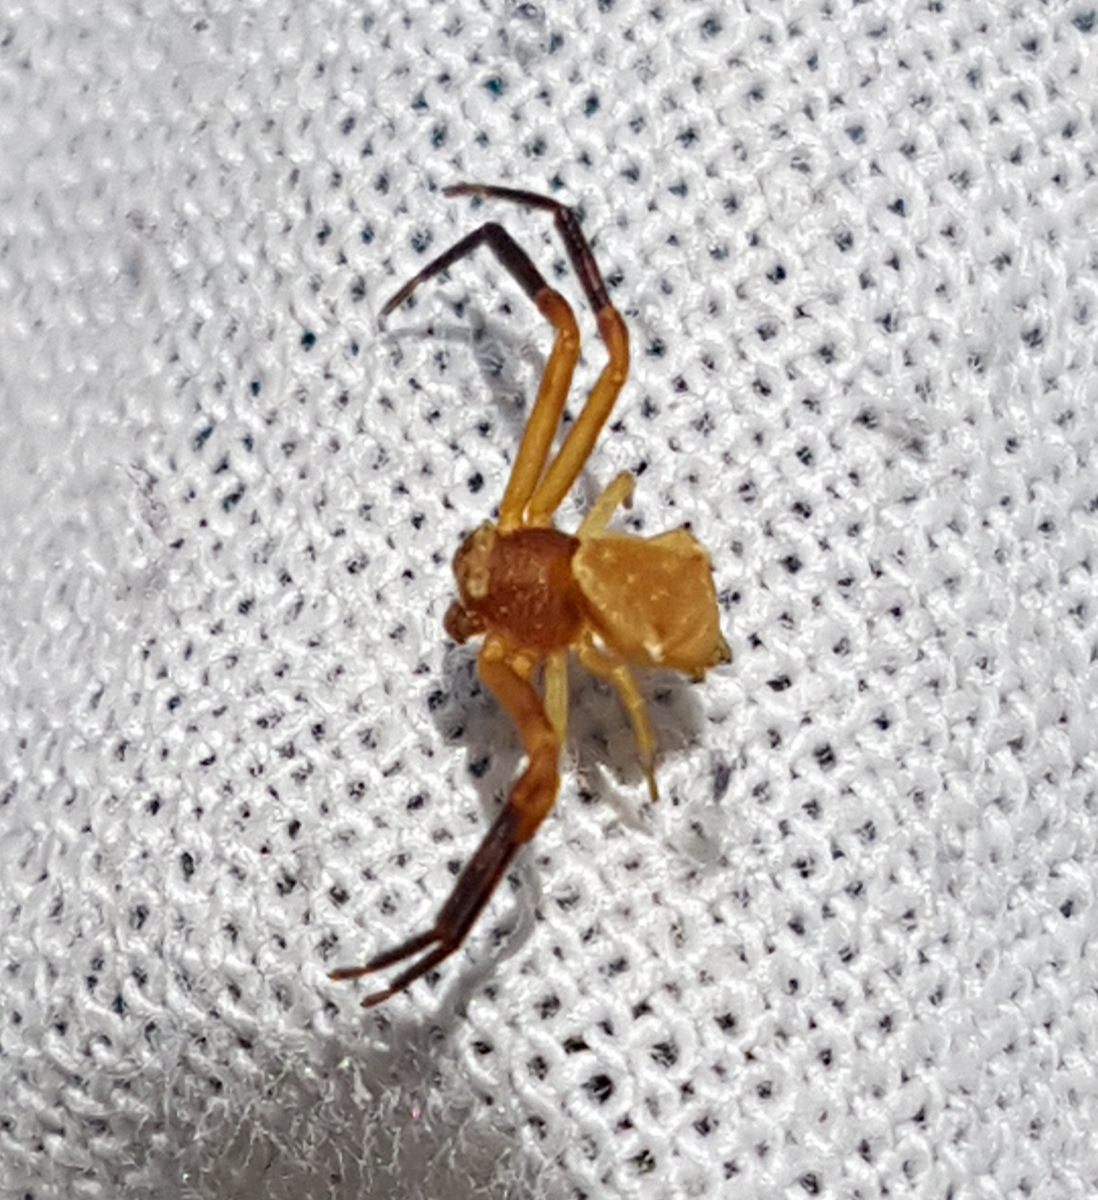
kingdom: Animalia
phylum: Arthropoda
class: Arachnida
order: Araneae
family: Thomisidae
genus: Thomisus
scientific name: Thomisus onustus
